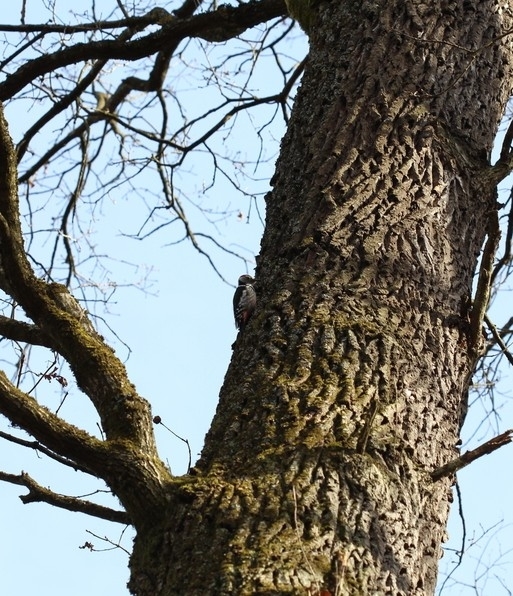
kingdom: Animalia
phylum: Chordata
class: Aves
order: Piciformes
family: Picidae
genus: Dendrocoptes
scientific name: Dendrocoptes medius
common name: Middle spotted woodpecker
